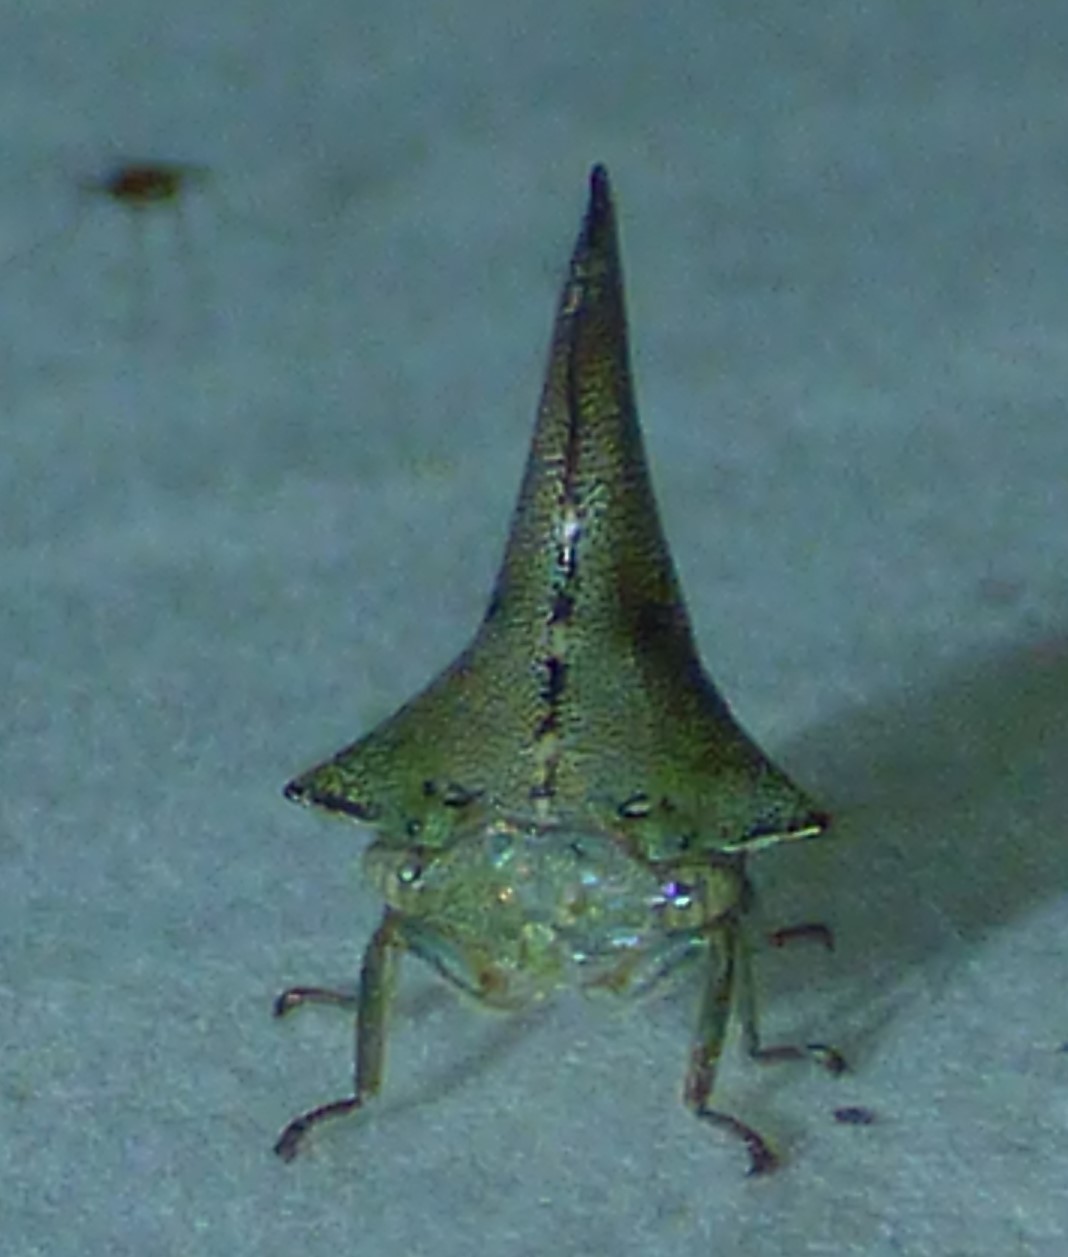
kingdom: Animalia
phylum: Arthropoda
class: Insecta
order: Hemiptera
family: Membracidae
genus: Glossonotus
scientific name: Glossonotus acuminata
